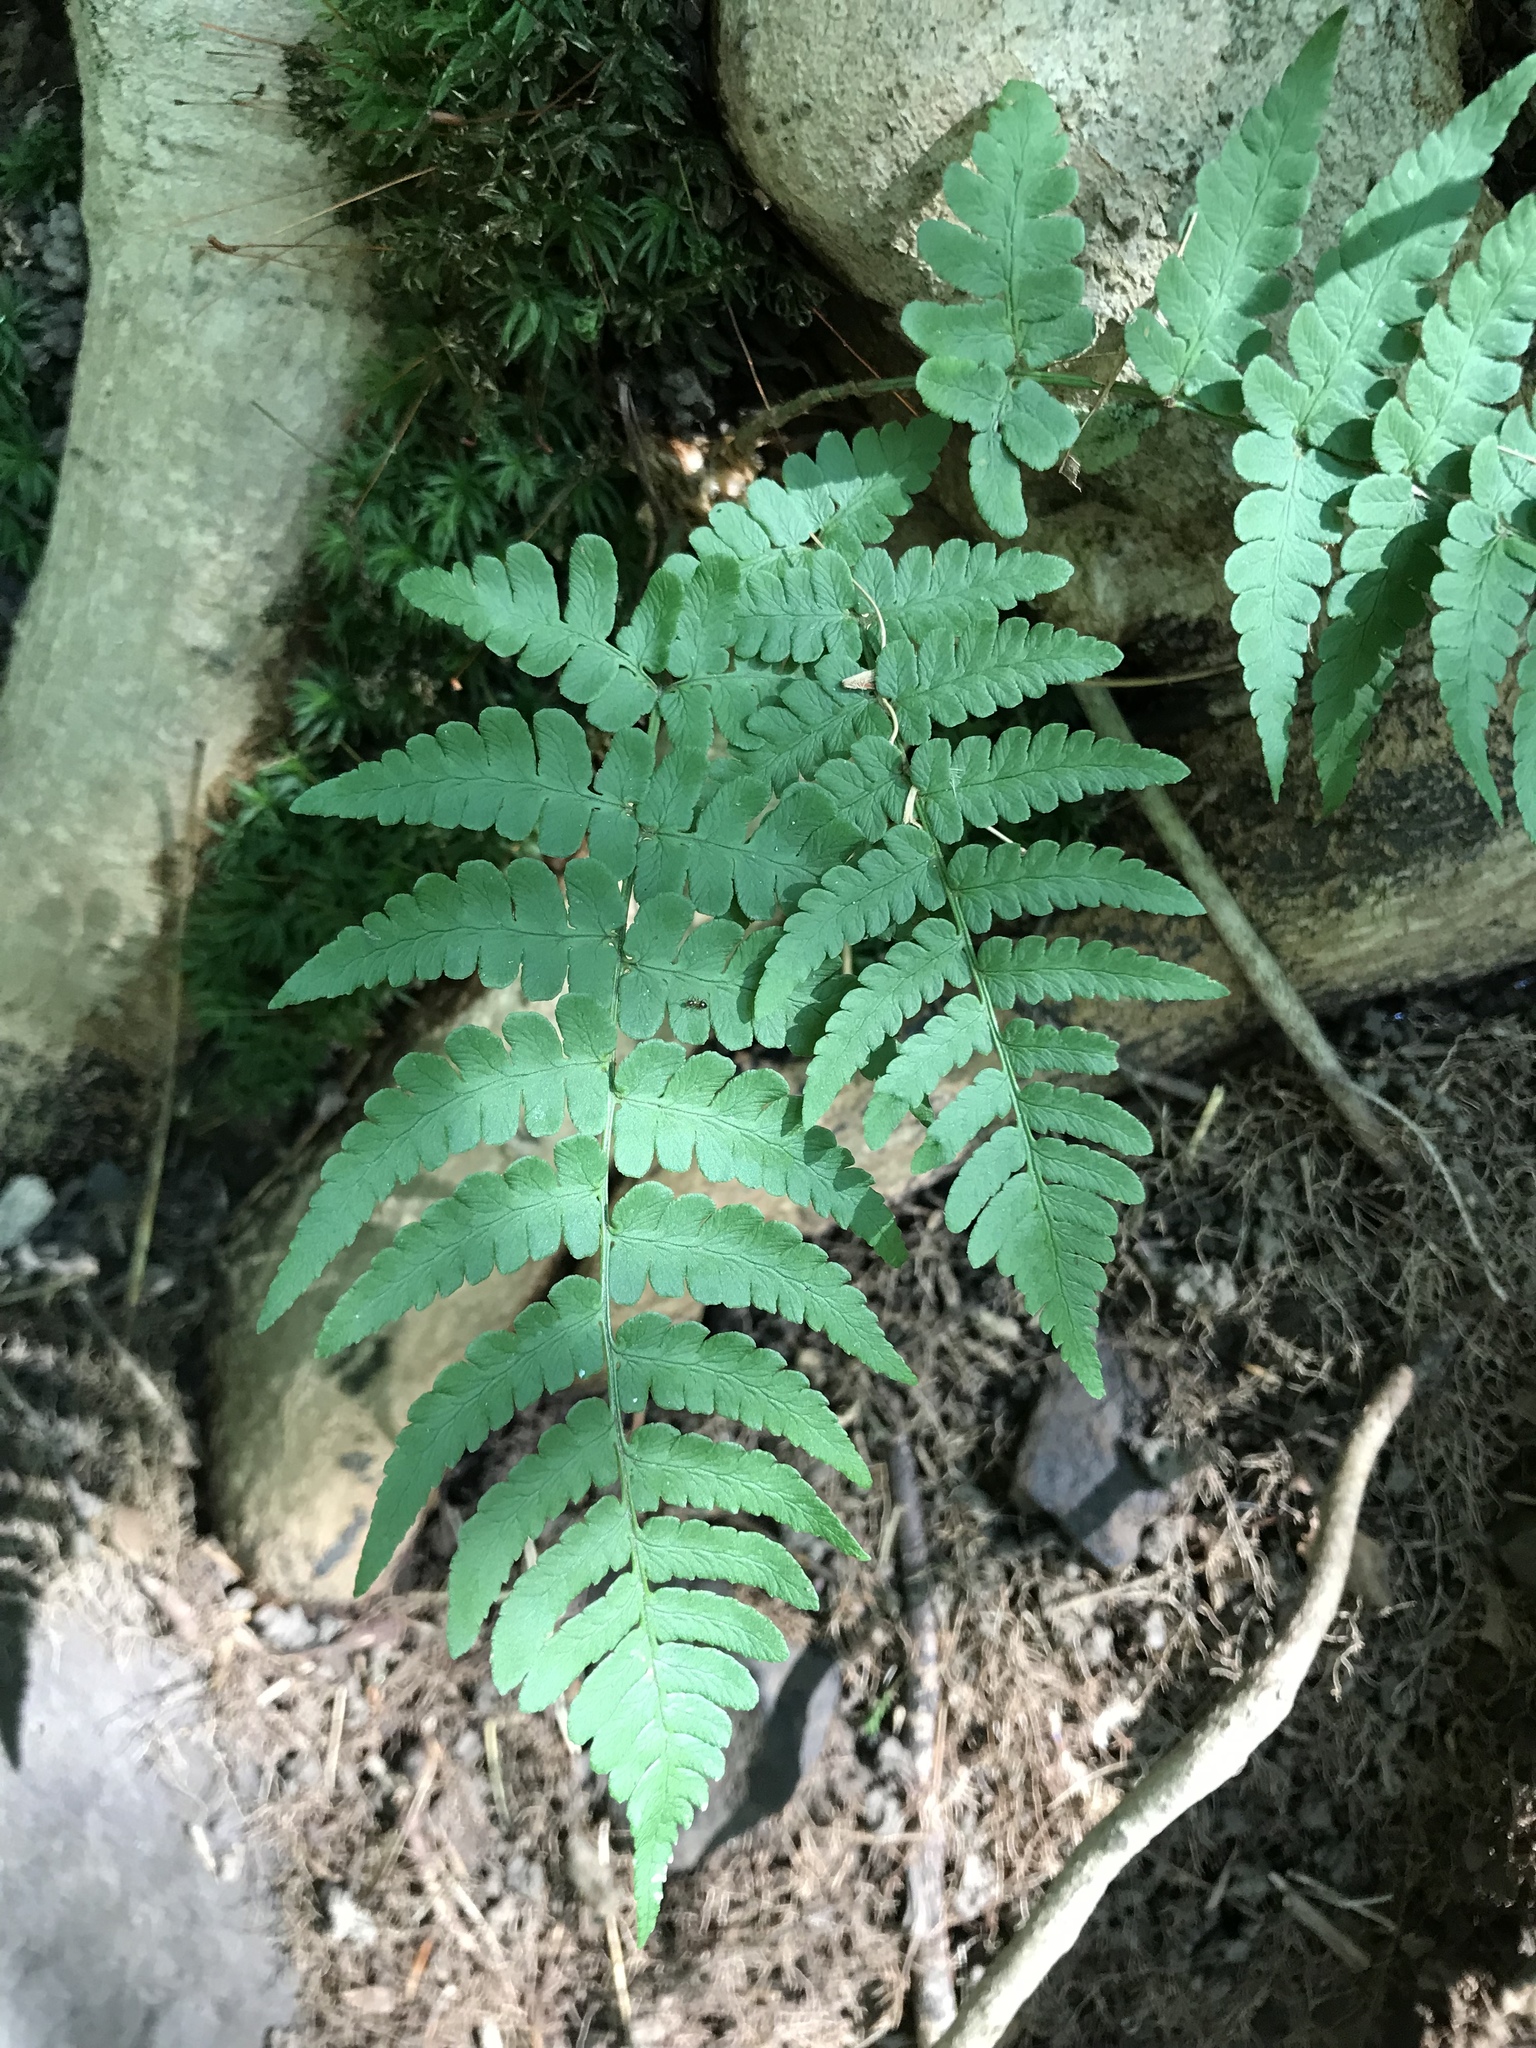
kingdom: Plantae
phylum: Tracheophyta
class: Polypodiopsida
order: Polypodiales
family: Dryopteridaceae
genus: Dryopteris
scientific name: Dryopteris marginalis
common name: Marginal wood fern
